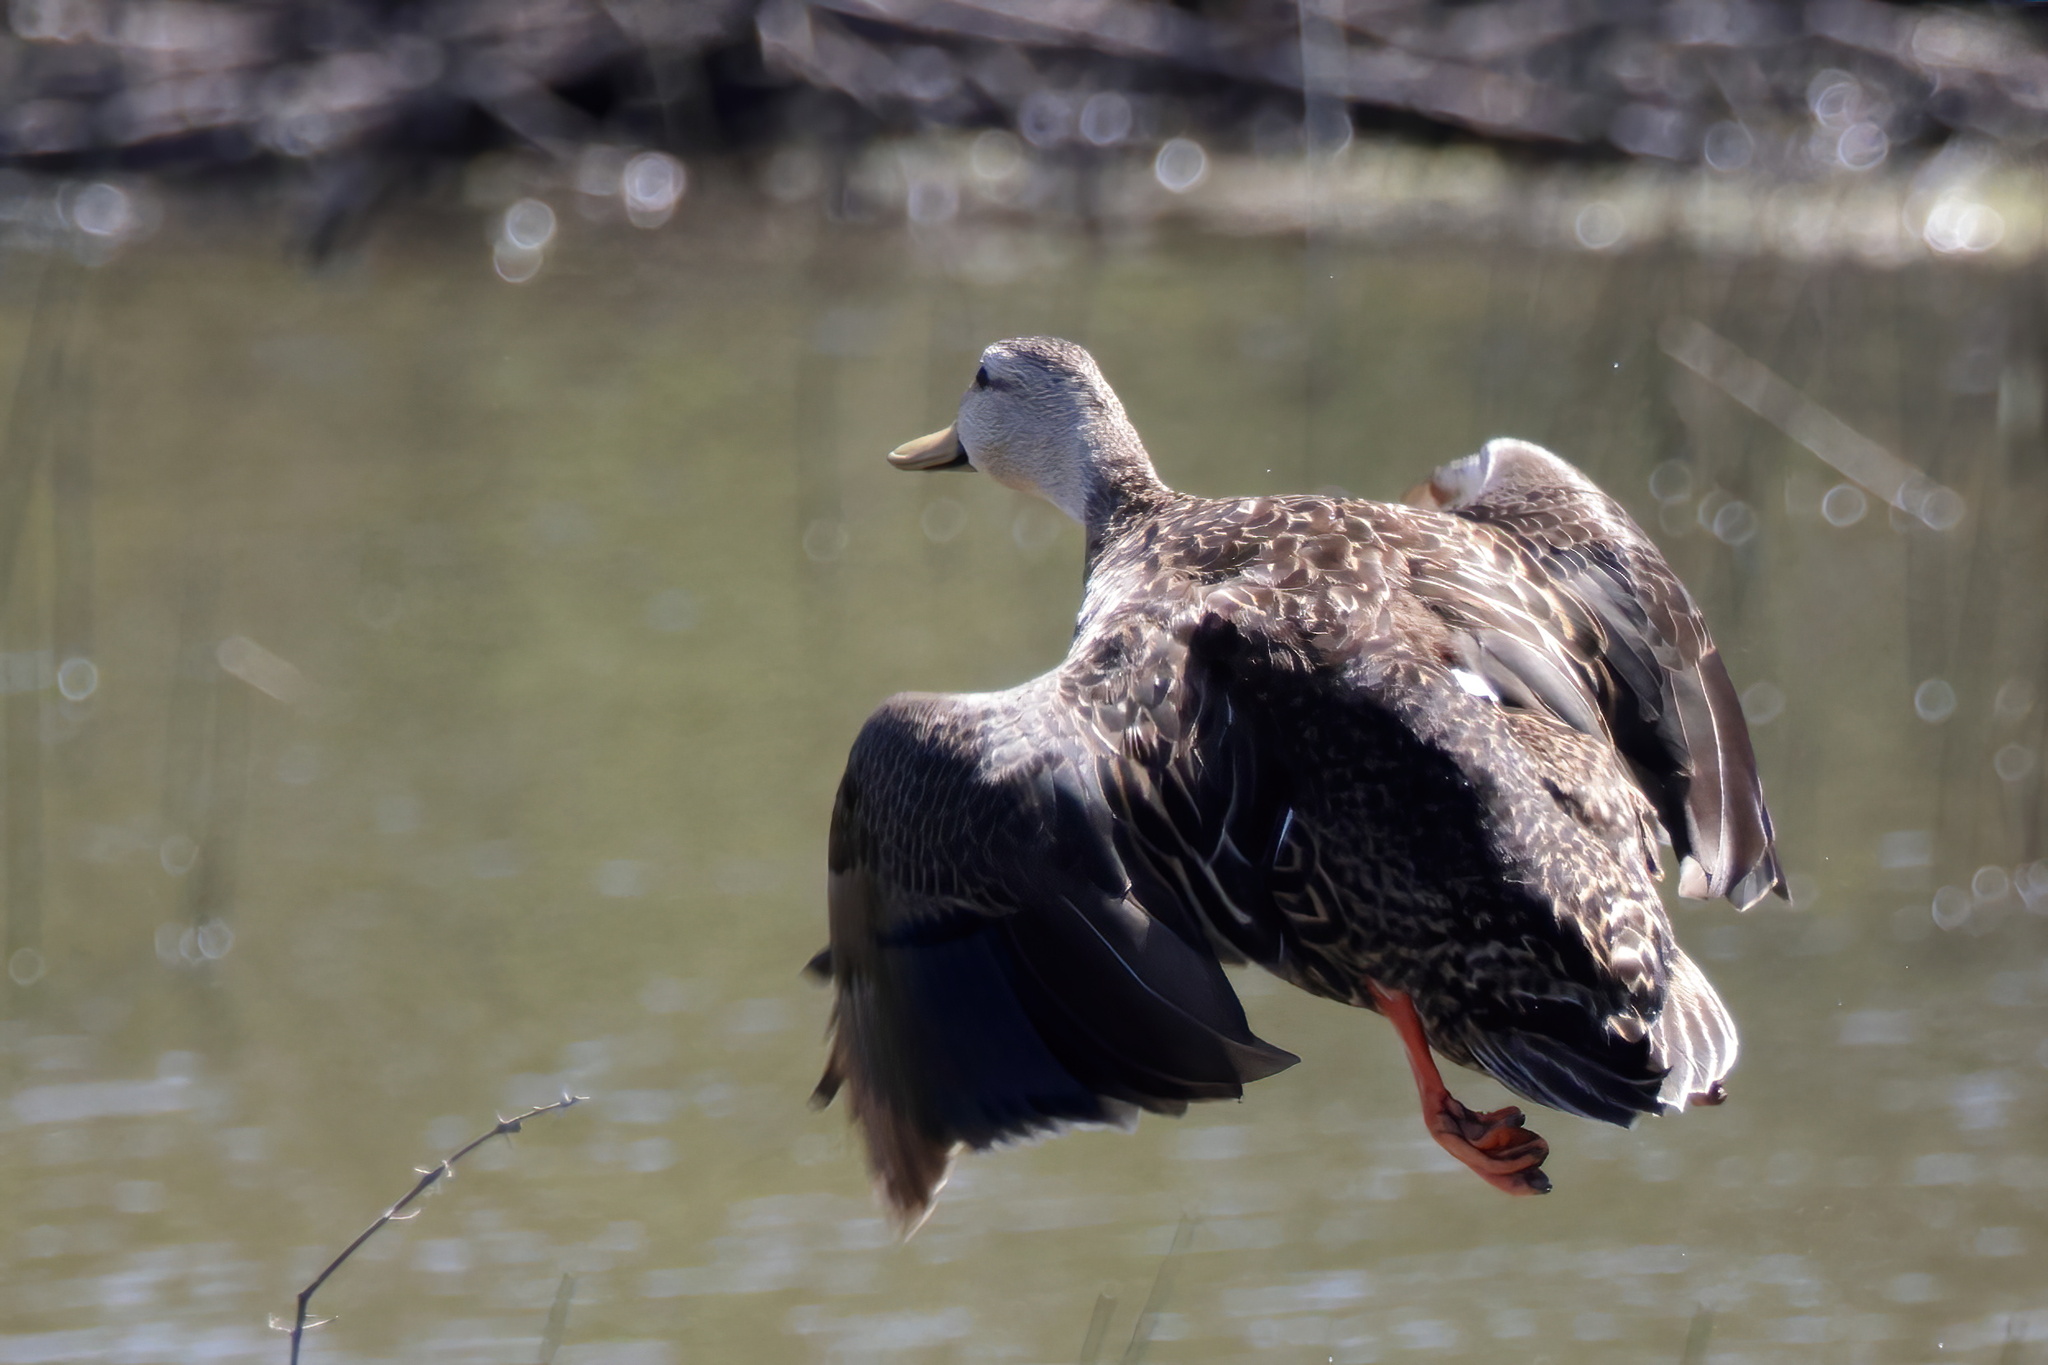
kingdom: Animalia
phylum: Chordata
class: Aves
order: Anseriformes
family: Anatidae
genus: Anas
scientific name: Anas fulvigula
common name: Mottled duck
